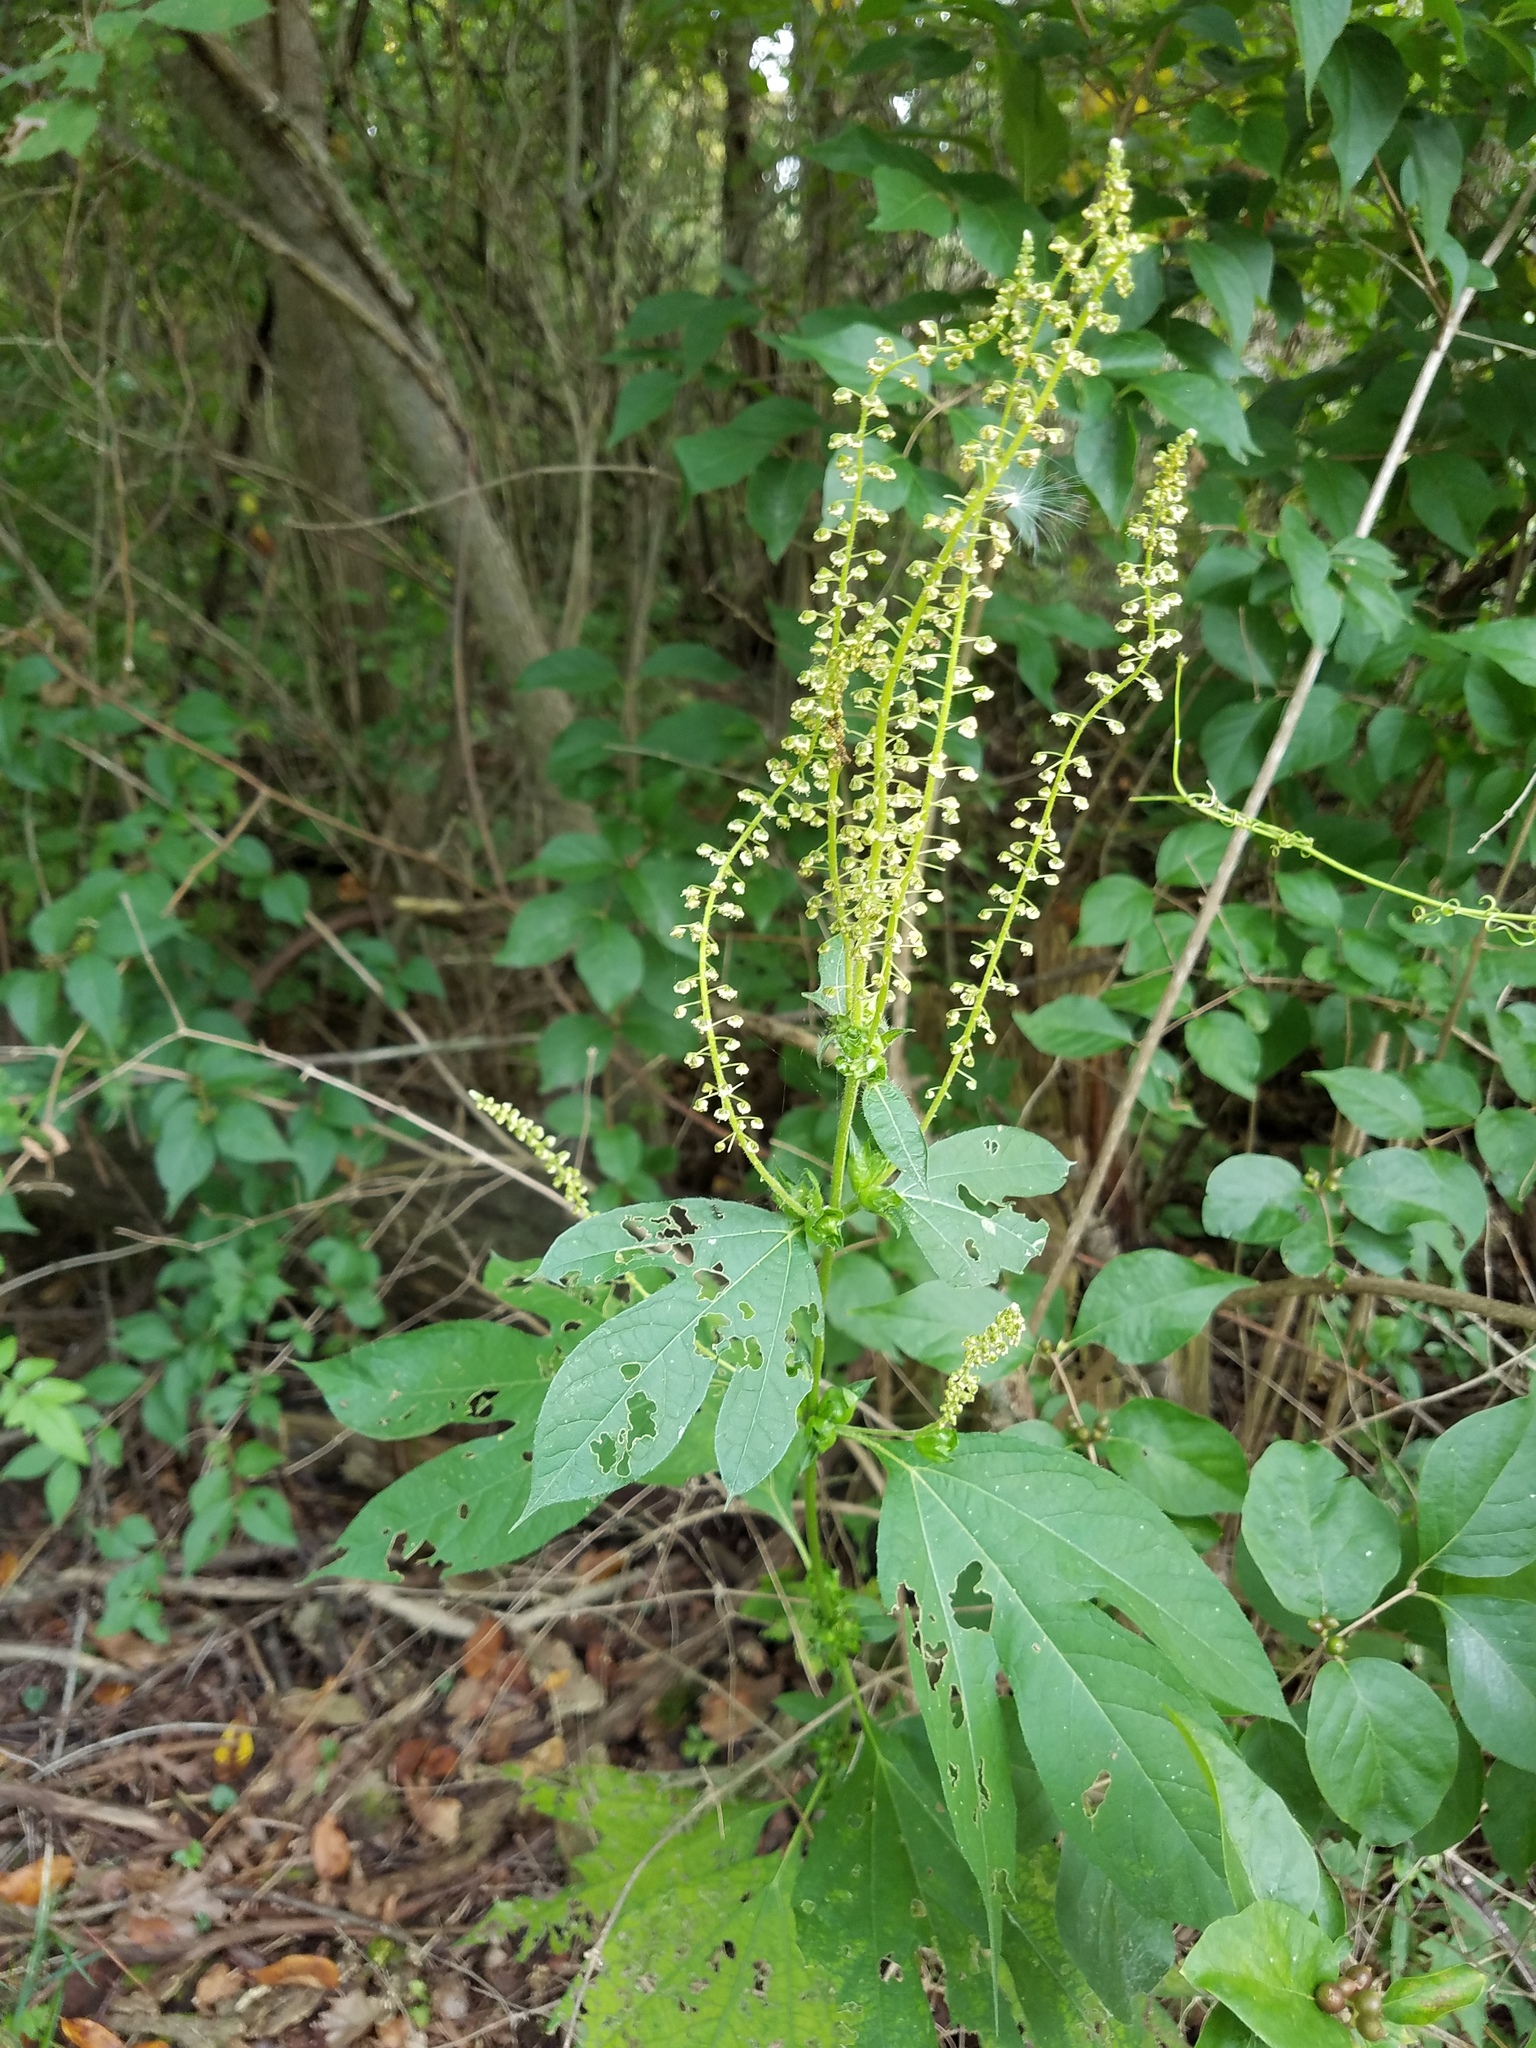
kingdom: Plantae
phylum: Tracheophyta
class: Magnoliopsida
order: Asterales
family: Asteraceae
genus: Ambrosia
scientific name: Ambrosia trifida
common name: Giant ragweed
